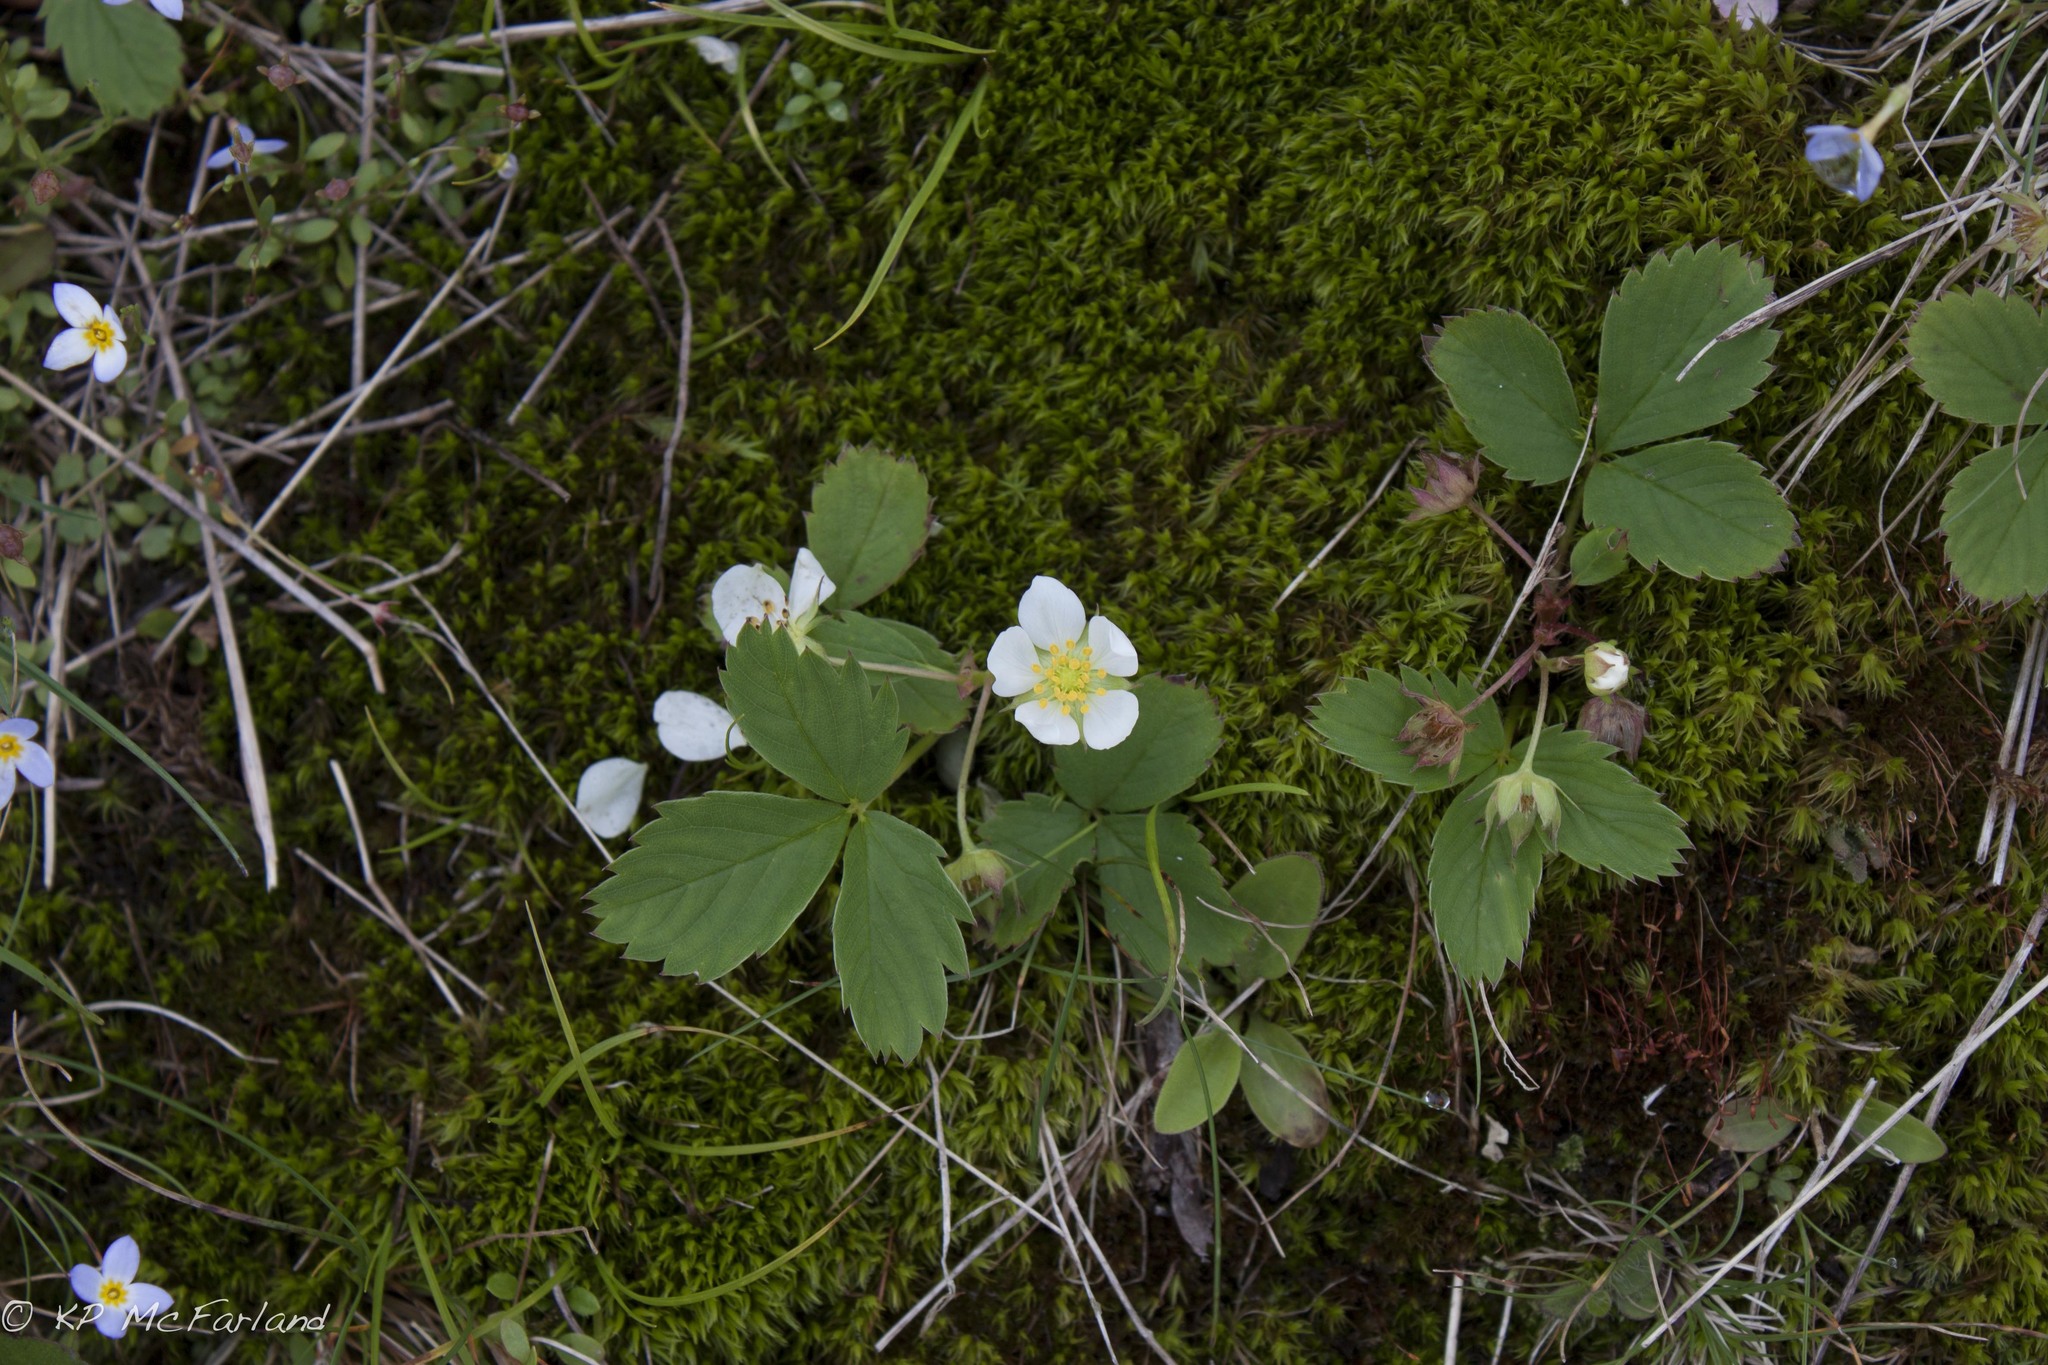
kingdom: Plantae
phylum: Tracheophyta
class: Magnoliopsida
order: Rosales
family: Rosaceae
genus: Fragaria
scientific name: Fragaria virginiana
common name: Thickleaved wild strawberry
